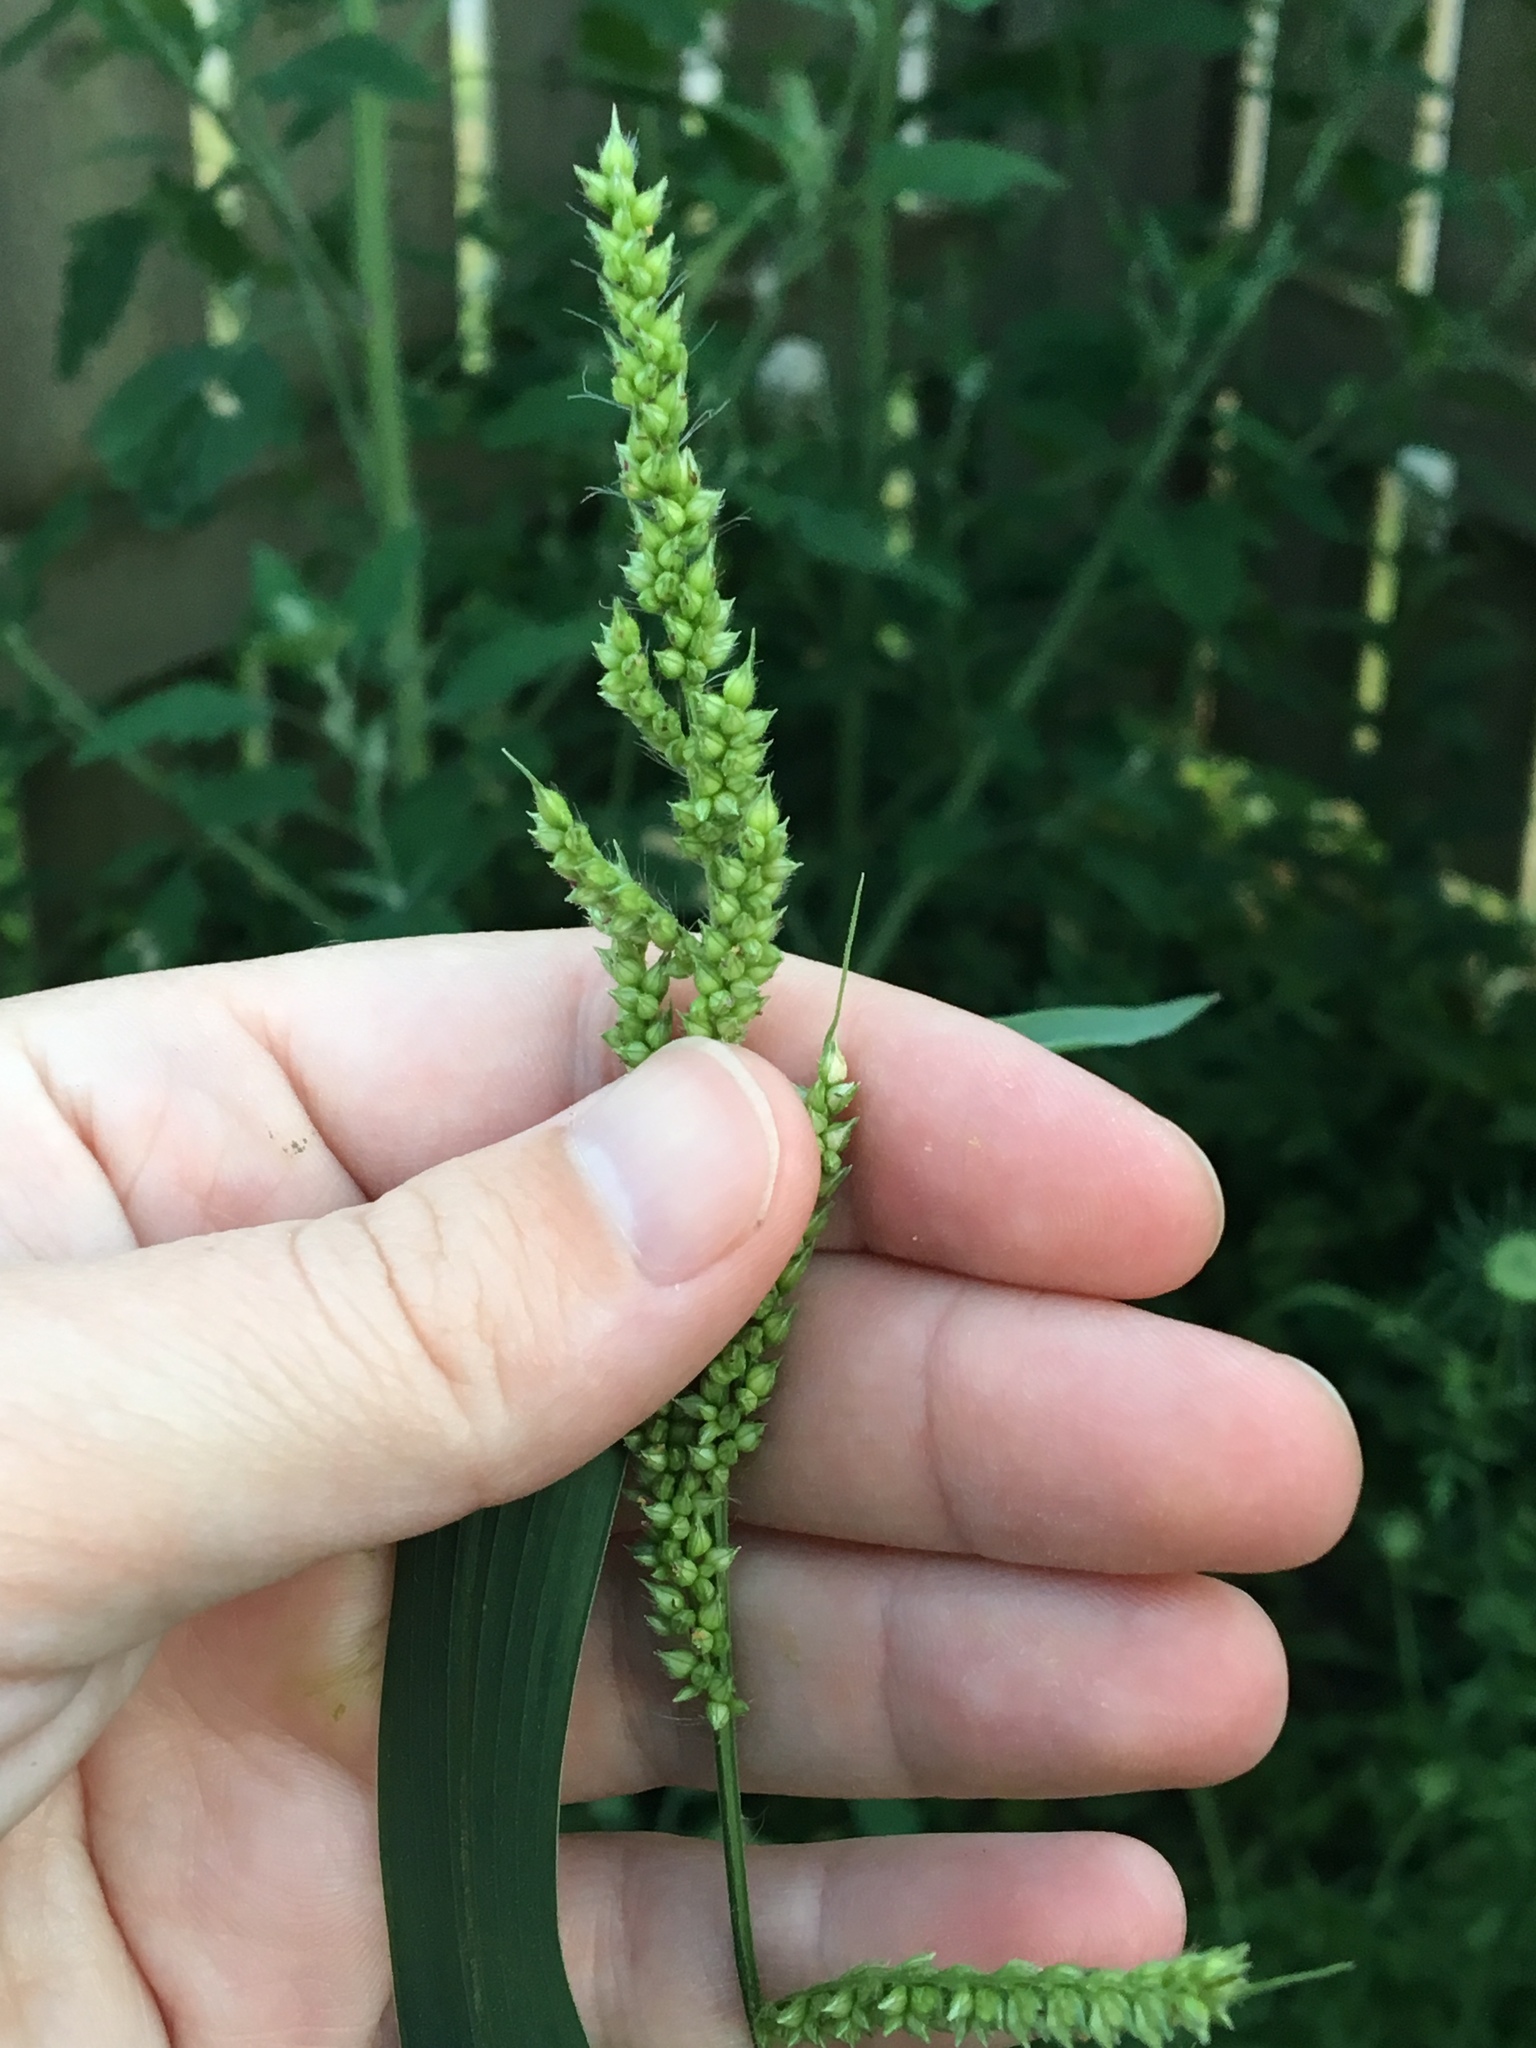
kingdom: Plantae
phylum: Tracheophyta
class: Liliopsida
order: Poales
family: Poaceae
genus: Echinochloa
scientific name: Echinochloa crus-galli
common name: Cockspur
